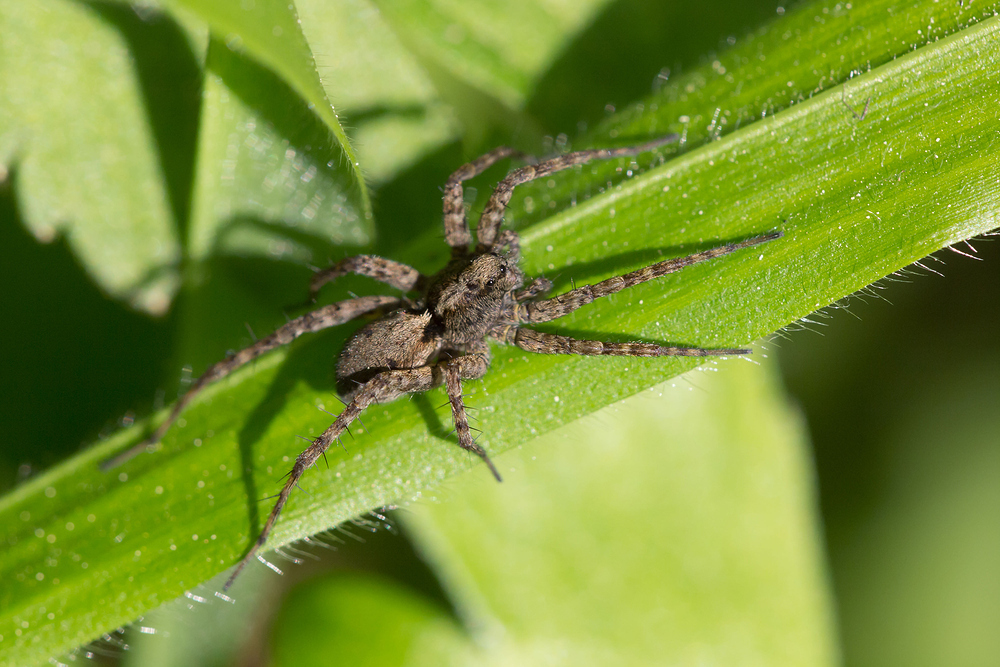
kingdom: Animalia
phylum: Arthropoda
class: Arachnida
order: Araneae
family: Lycosidae
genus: Pardosa
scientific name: Pardosa
